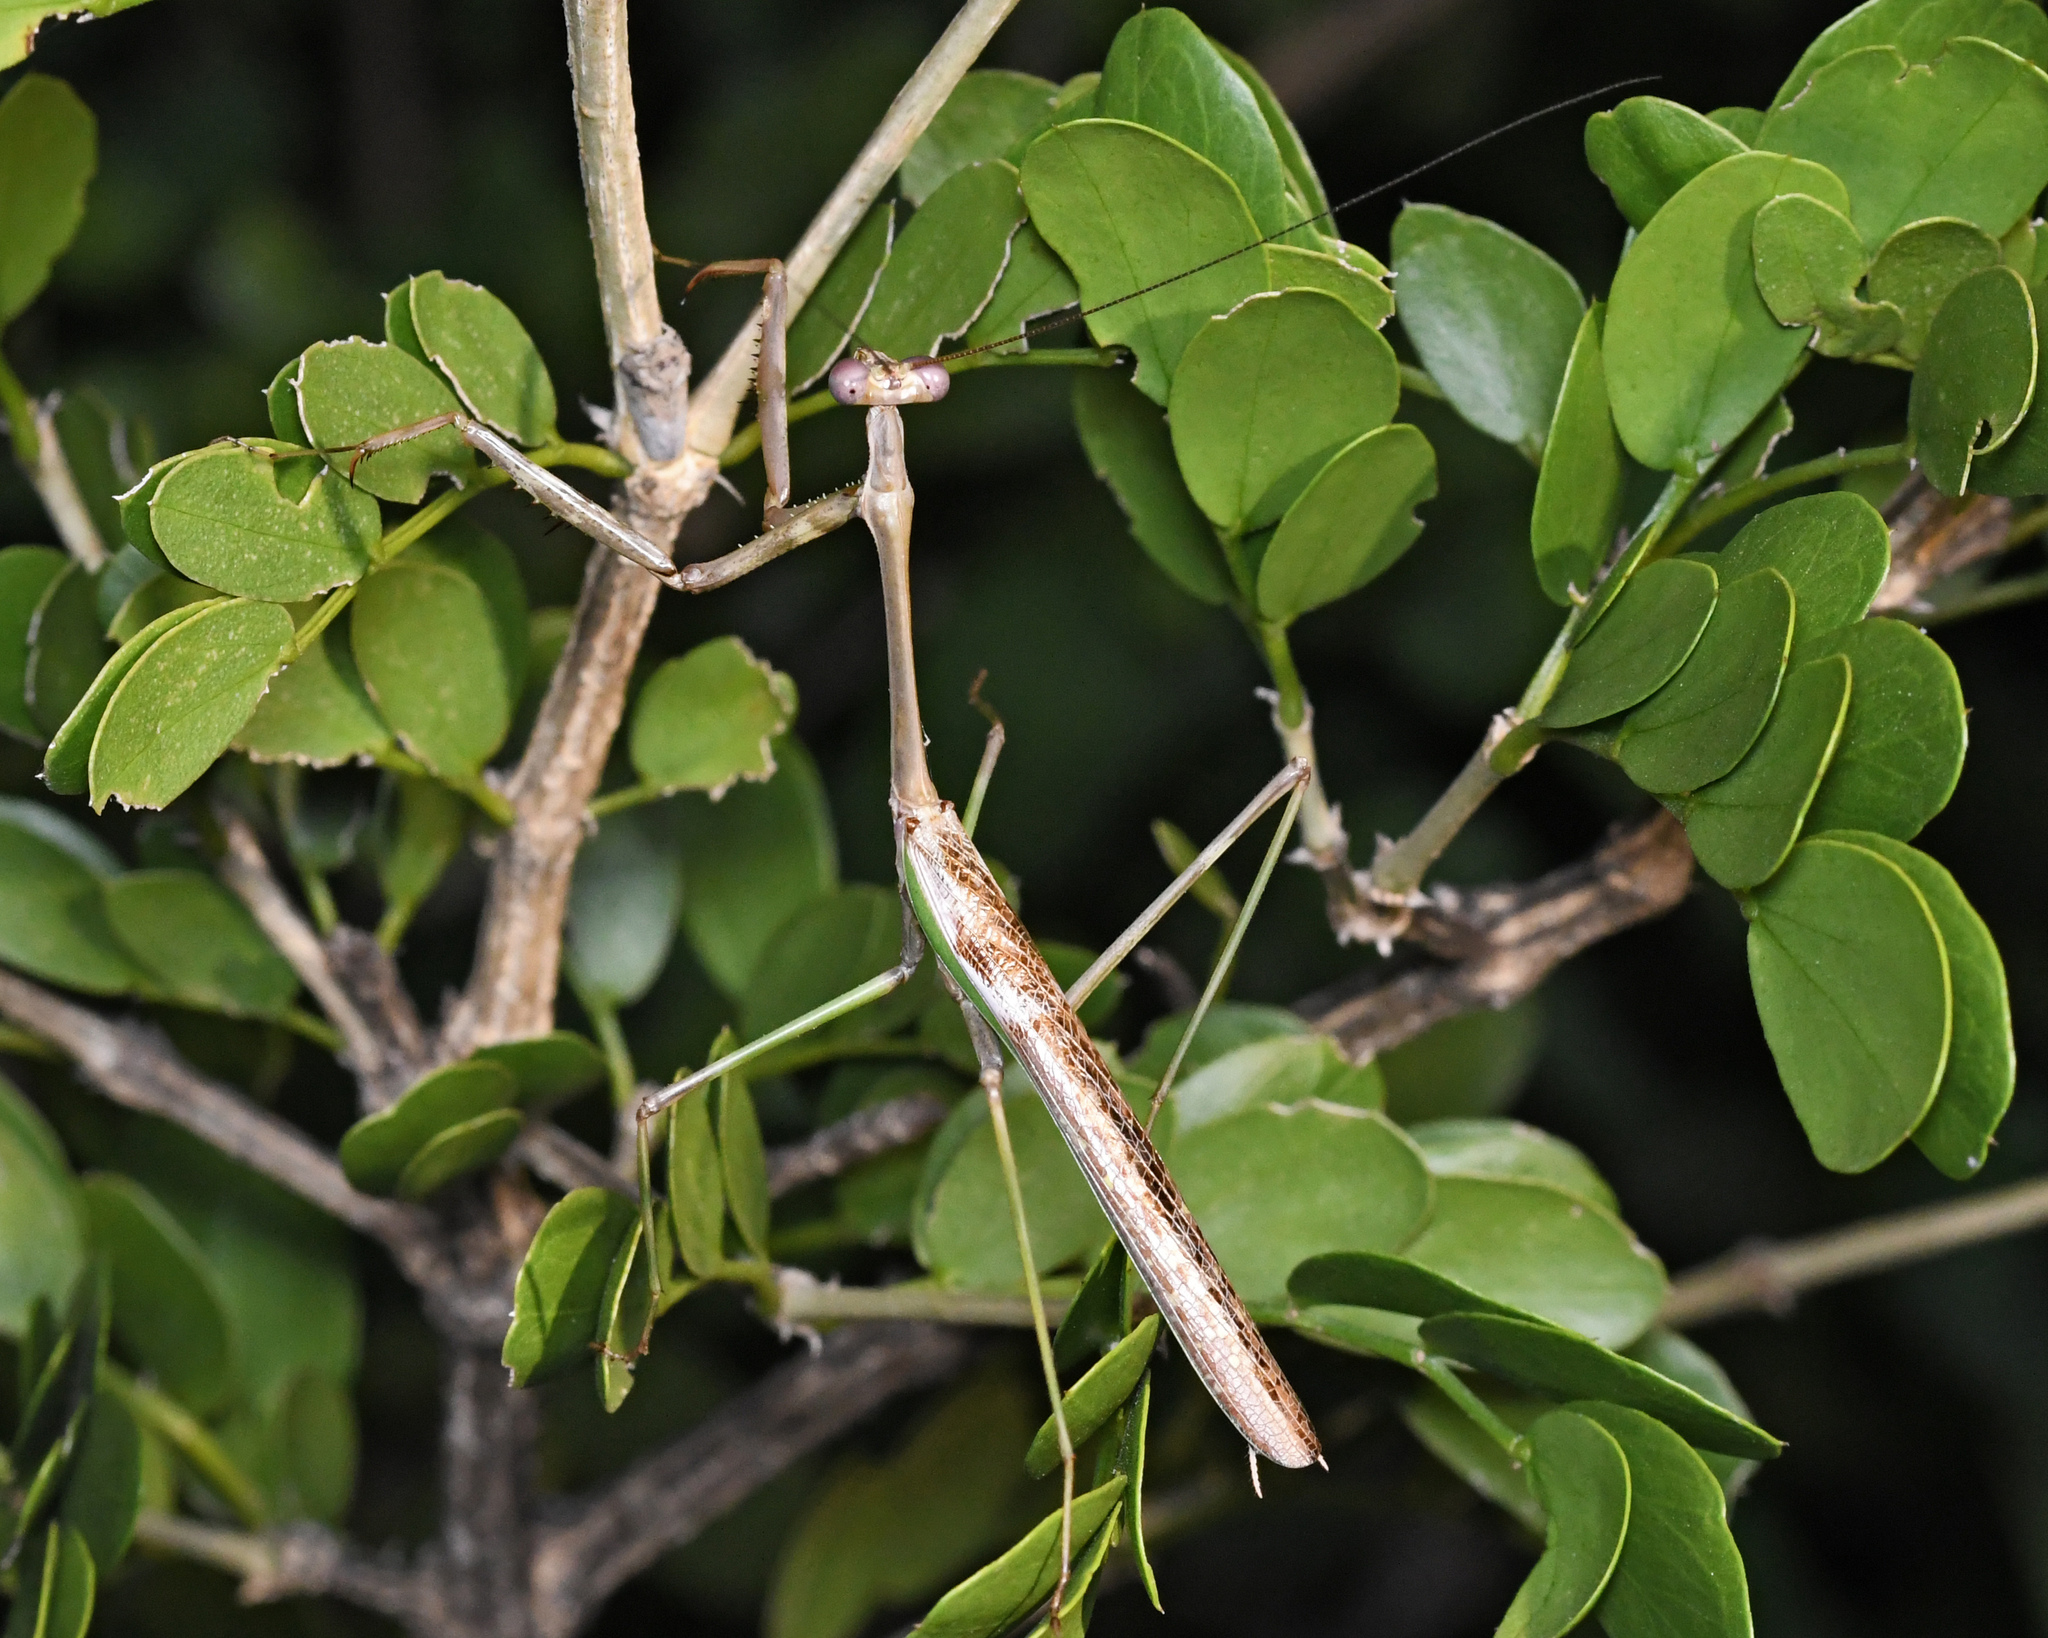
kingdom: Animalia
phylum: Arthropoda
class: Insecta
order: Mantodea
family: Mantidae
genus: Stagmomantis
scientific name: Stagmomantis domingensis
